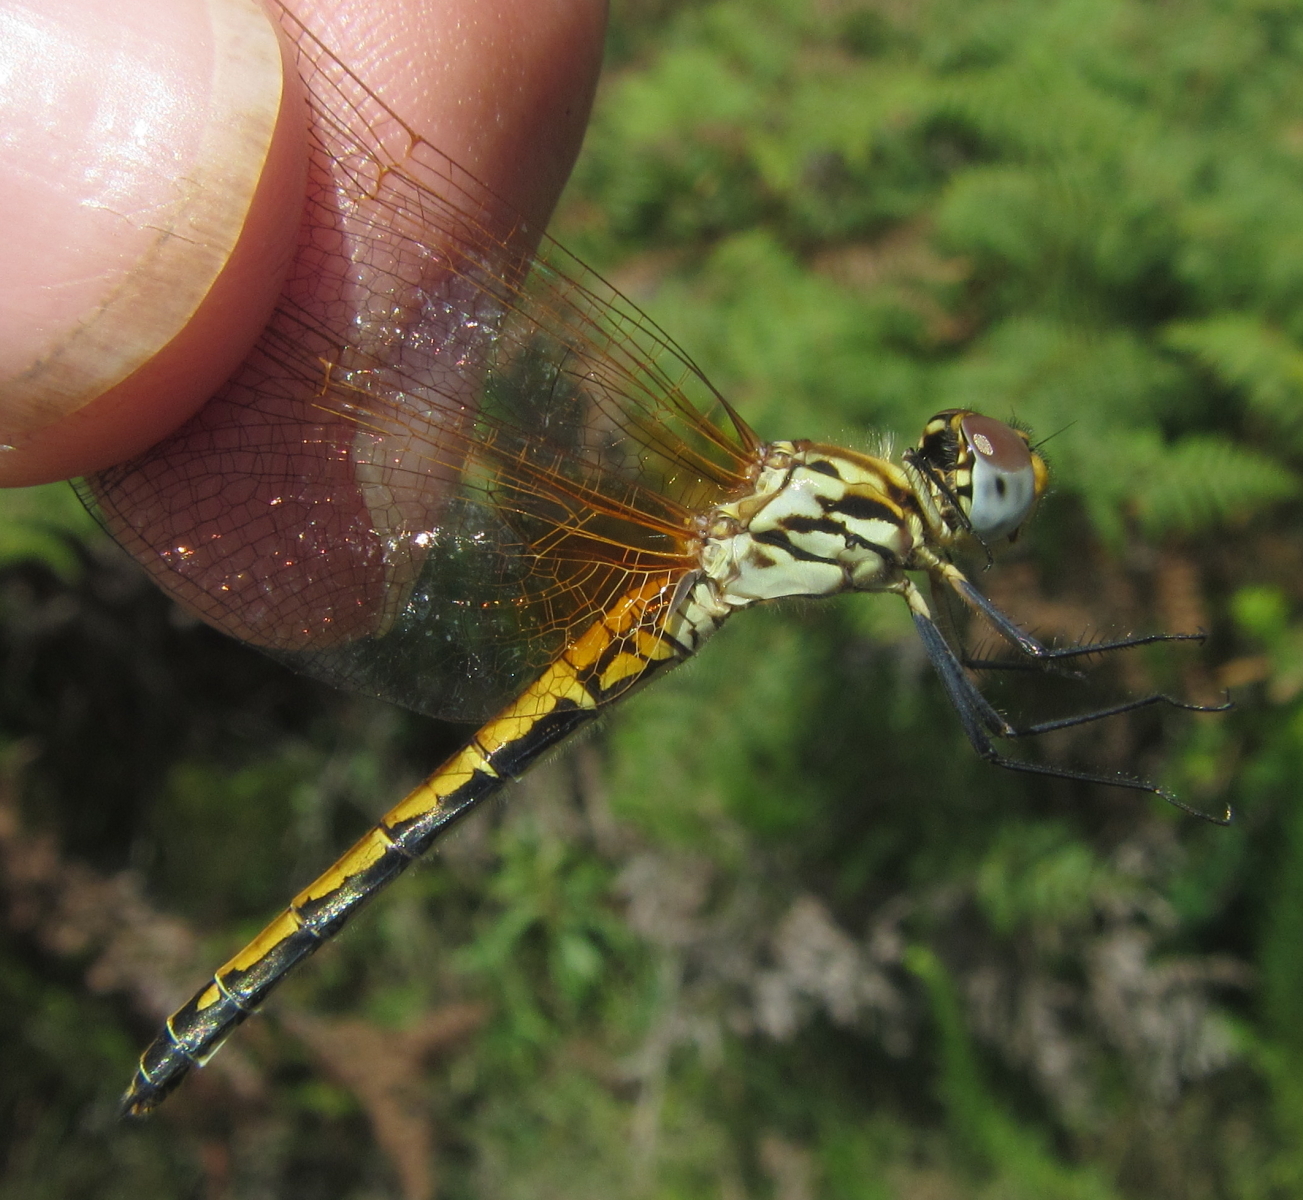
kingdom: Animalia
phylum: Arthropoda
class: Insecta
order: Odonata
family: Libellulidae
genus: Trithemis
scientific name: Trithemis arteriosa
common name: Red-veined dropwing
